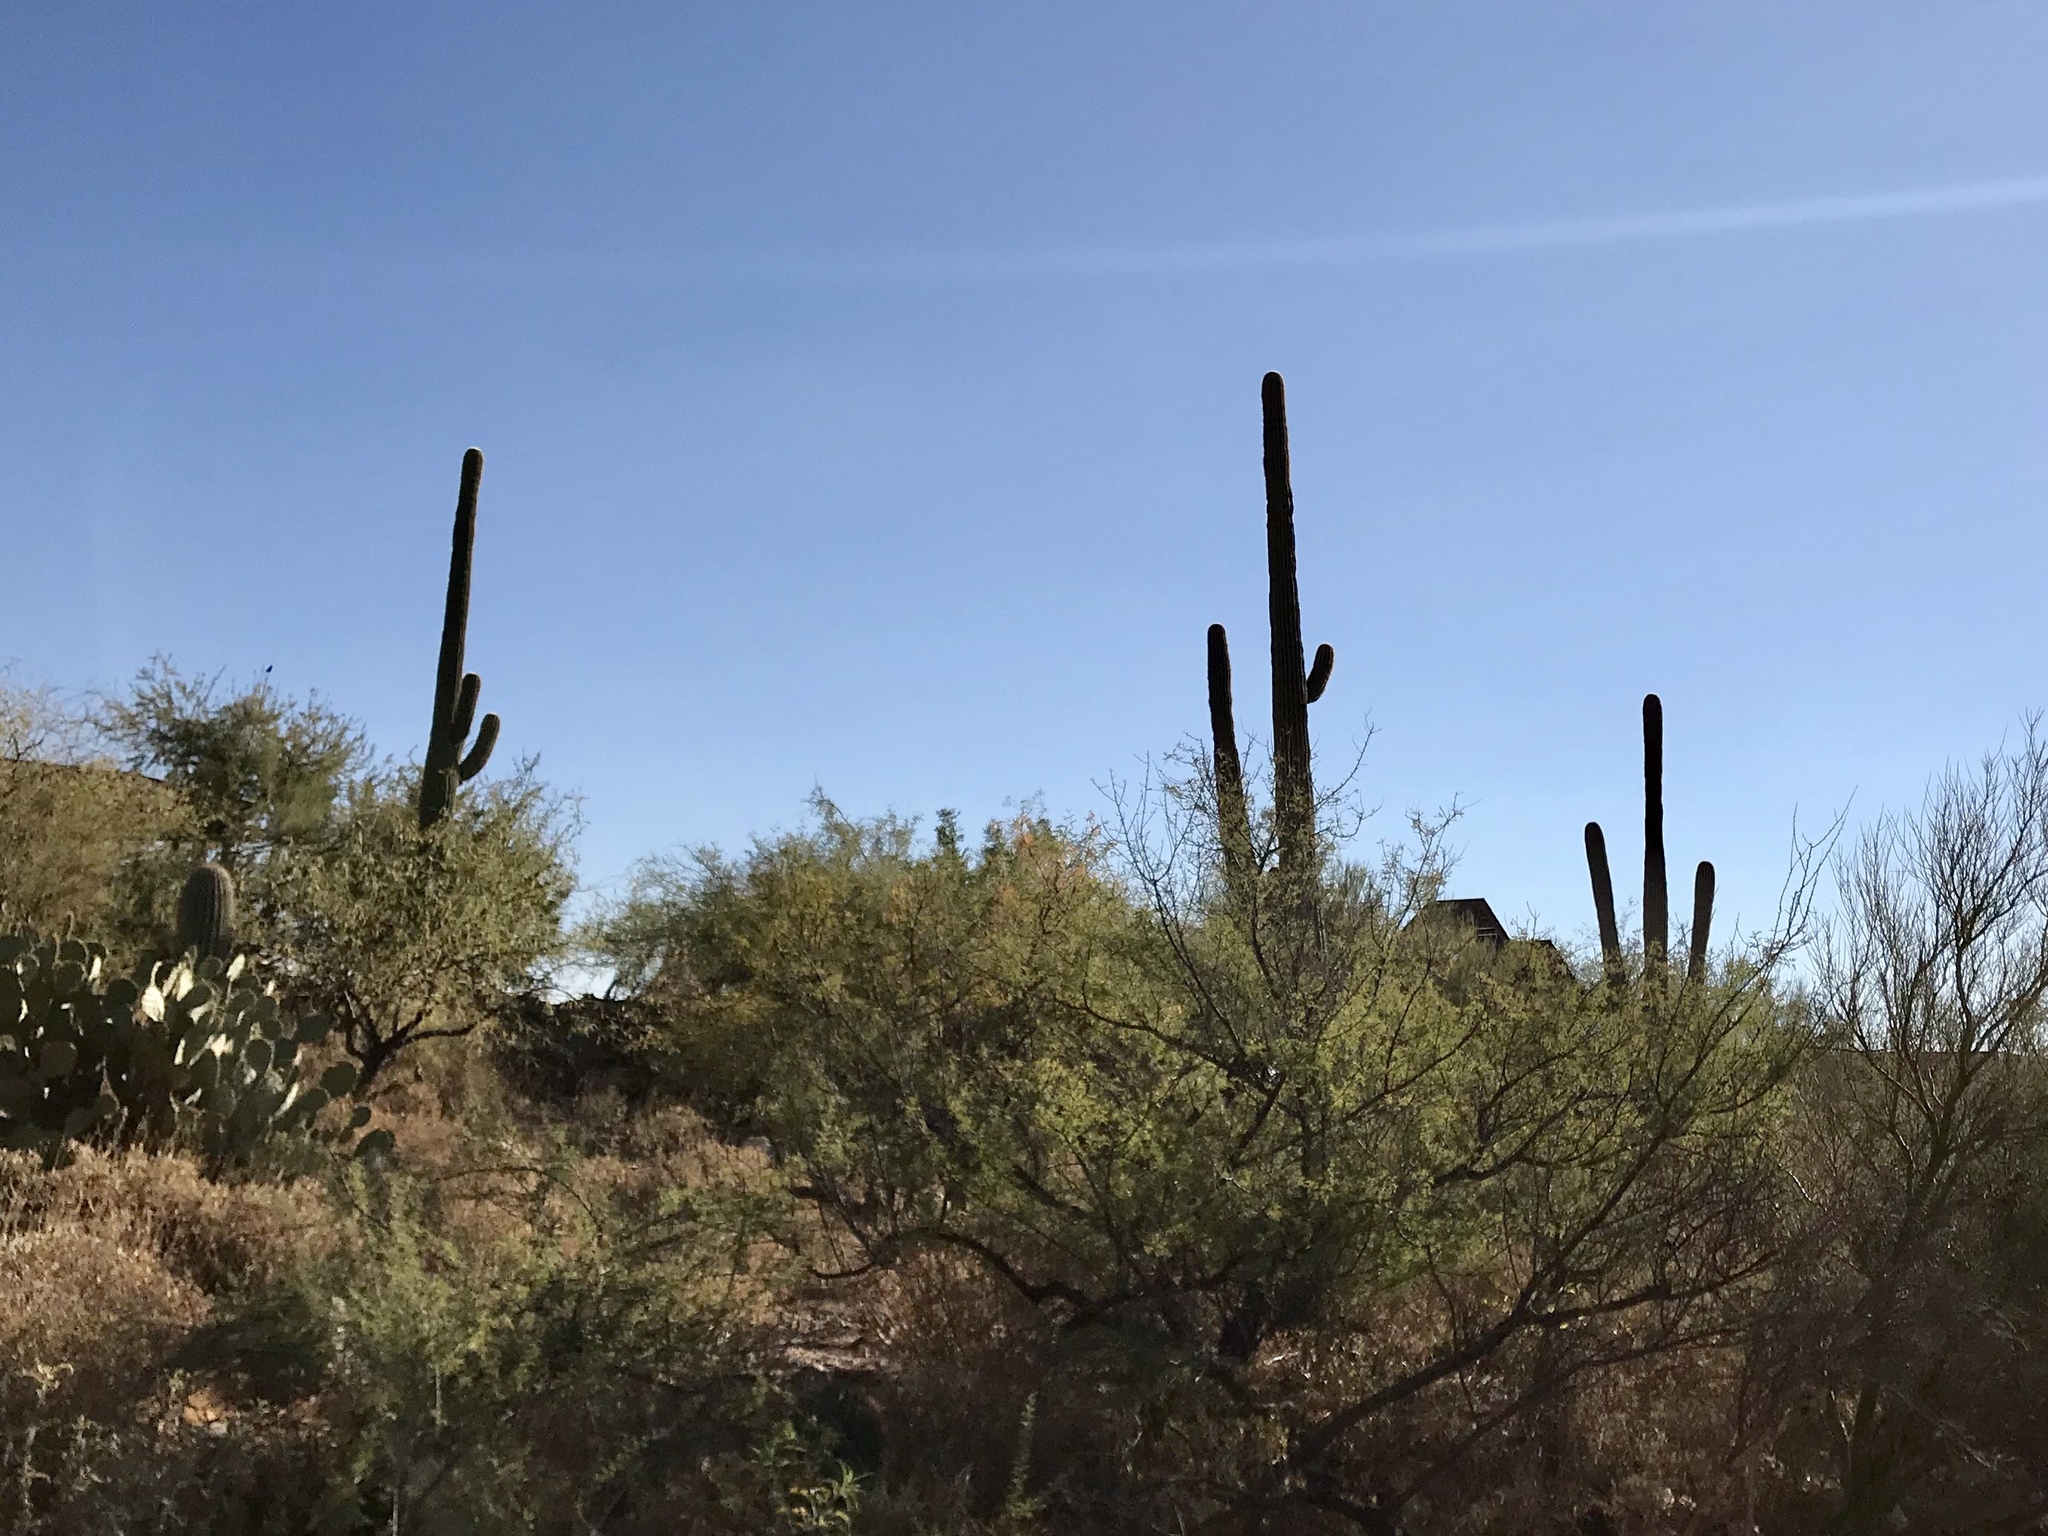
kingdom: Plantae
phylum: Tracheophyta
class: Magnoliopsida
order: Caryophyllales
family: Cactaceae
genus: Carnegiea
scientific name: Carnegiea gigantea
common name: Saguaro
